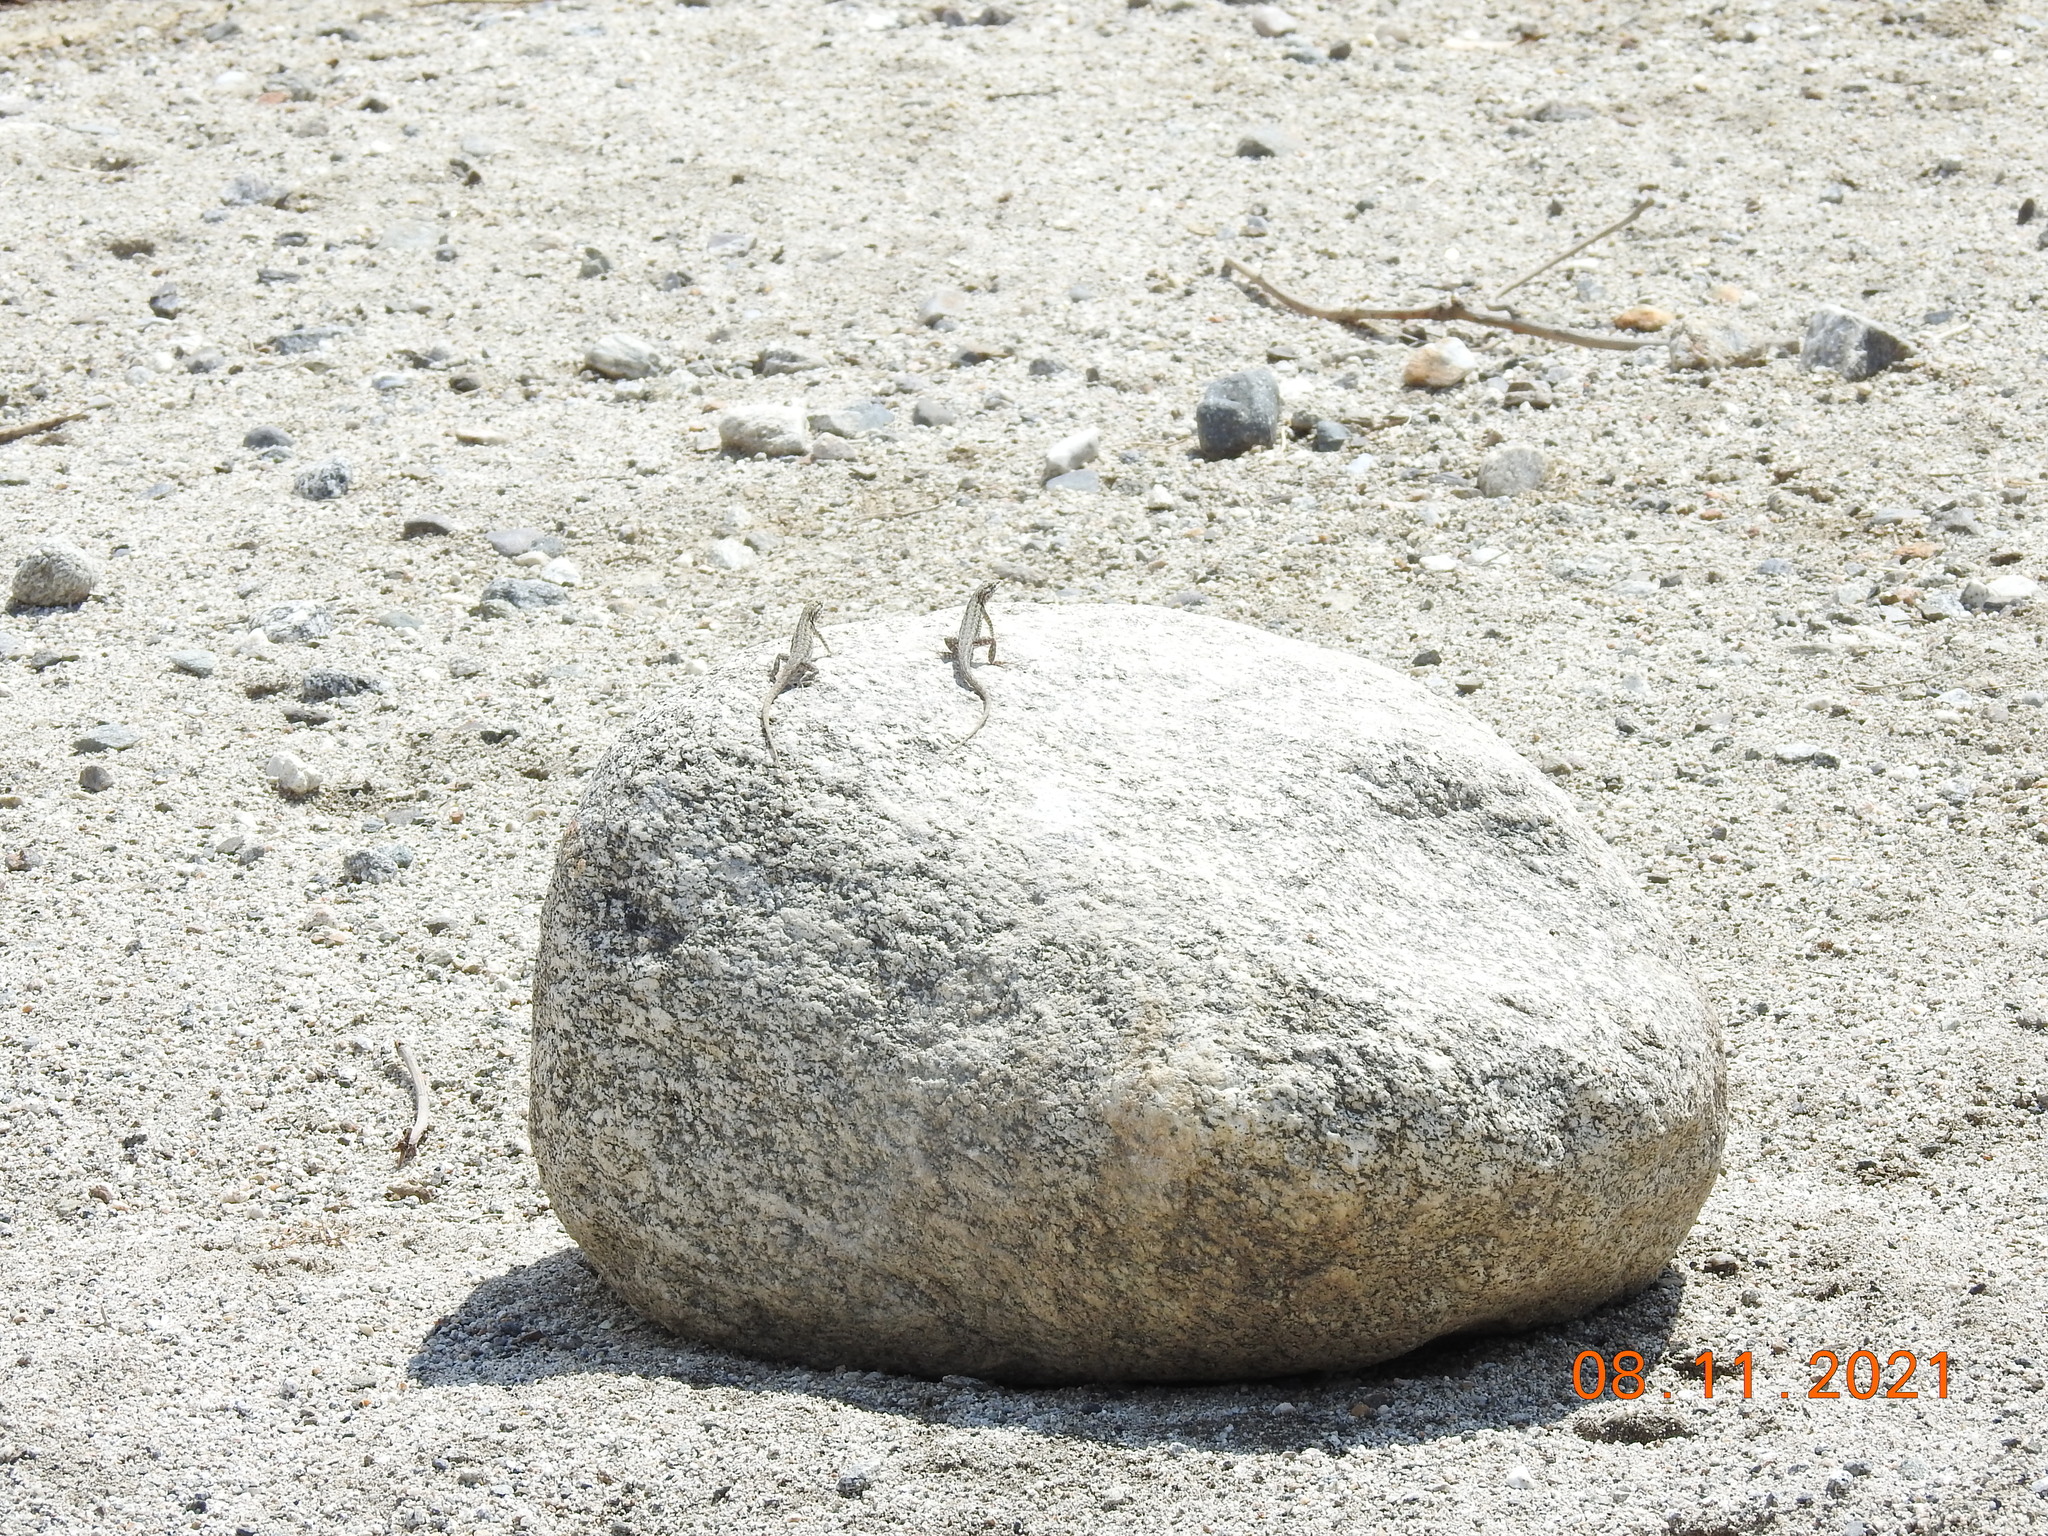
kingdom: Animalia
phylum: Chordata
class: Squamata
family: Phrynosomatidae
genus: Uta
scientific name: Uta stansburiana
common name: Side-blotched lizard
